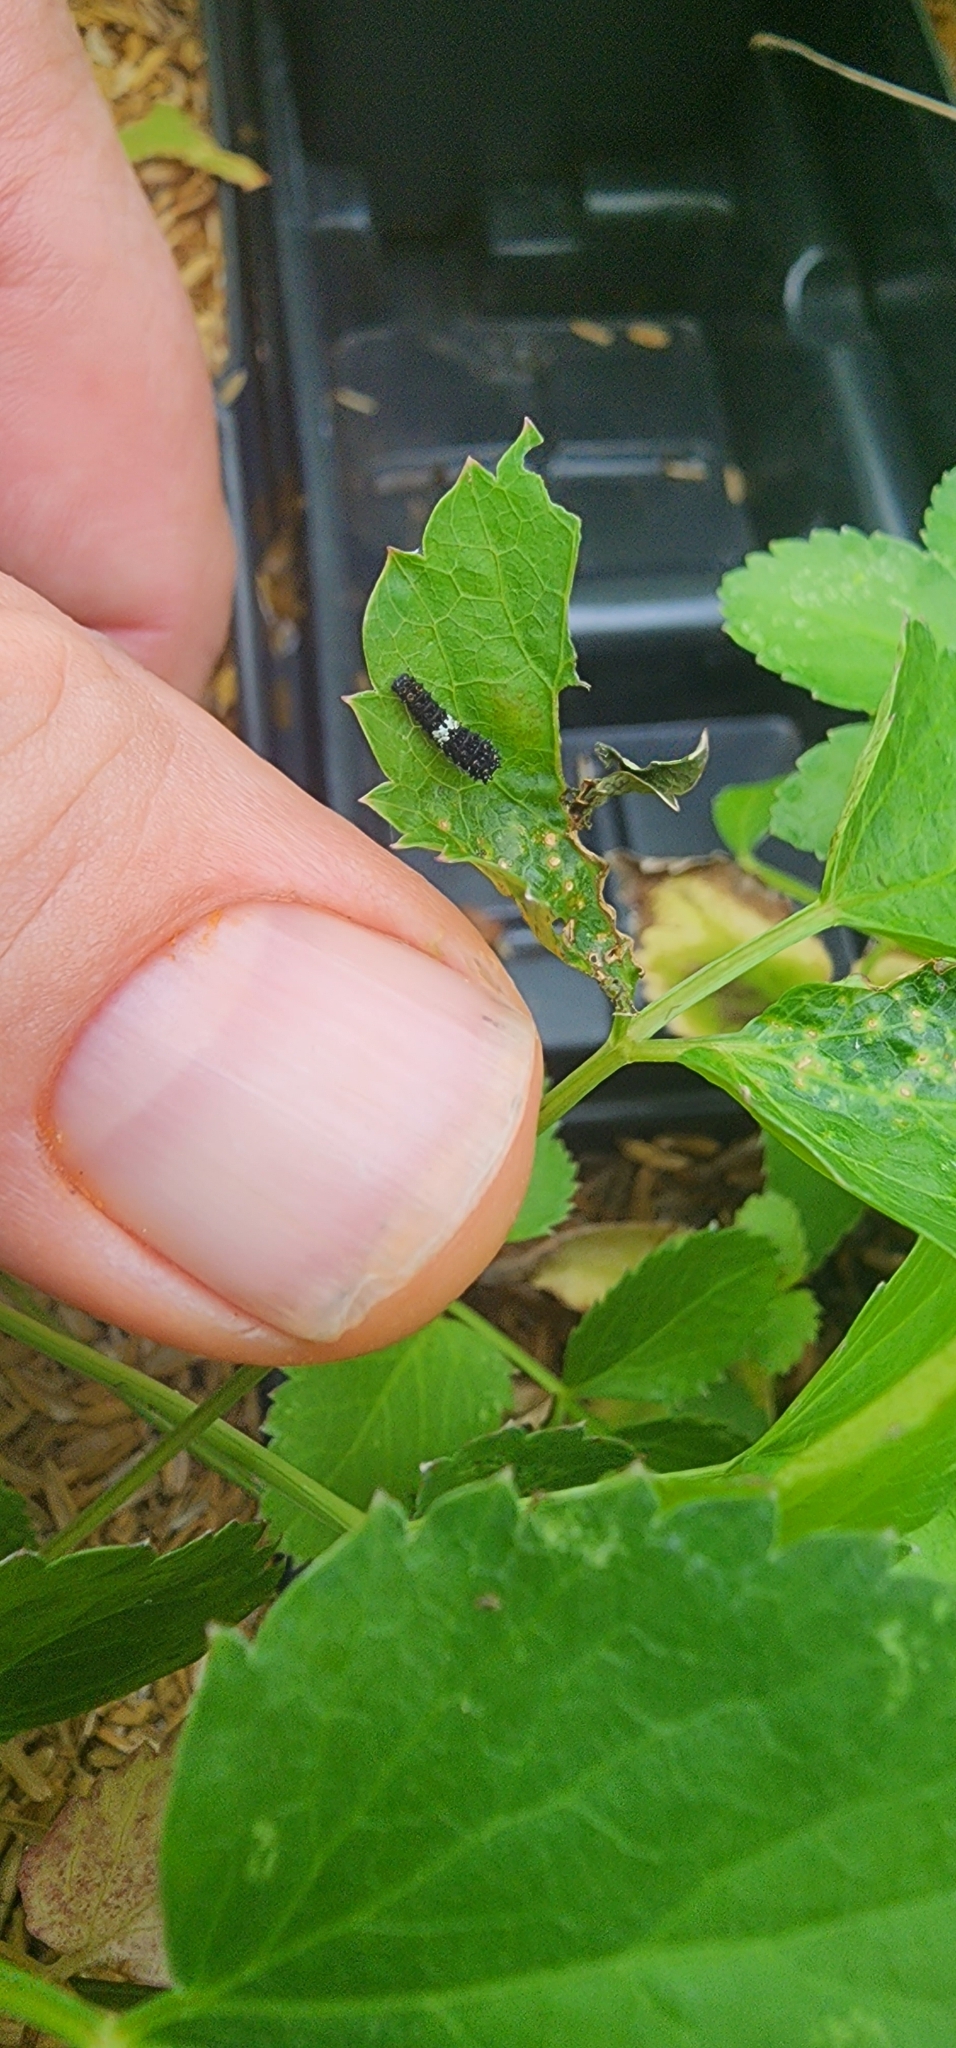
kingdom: Animalia
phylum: Arthropoda
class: Insecta
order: Lepidoptera
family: Papilionidae
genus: Papilio
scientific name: Papilio polyxenes
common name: Black swallowtail
